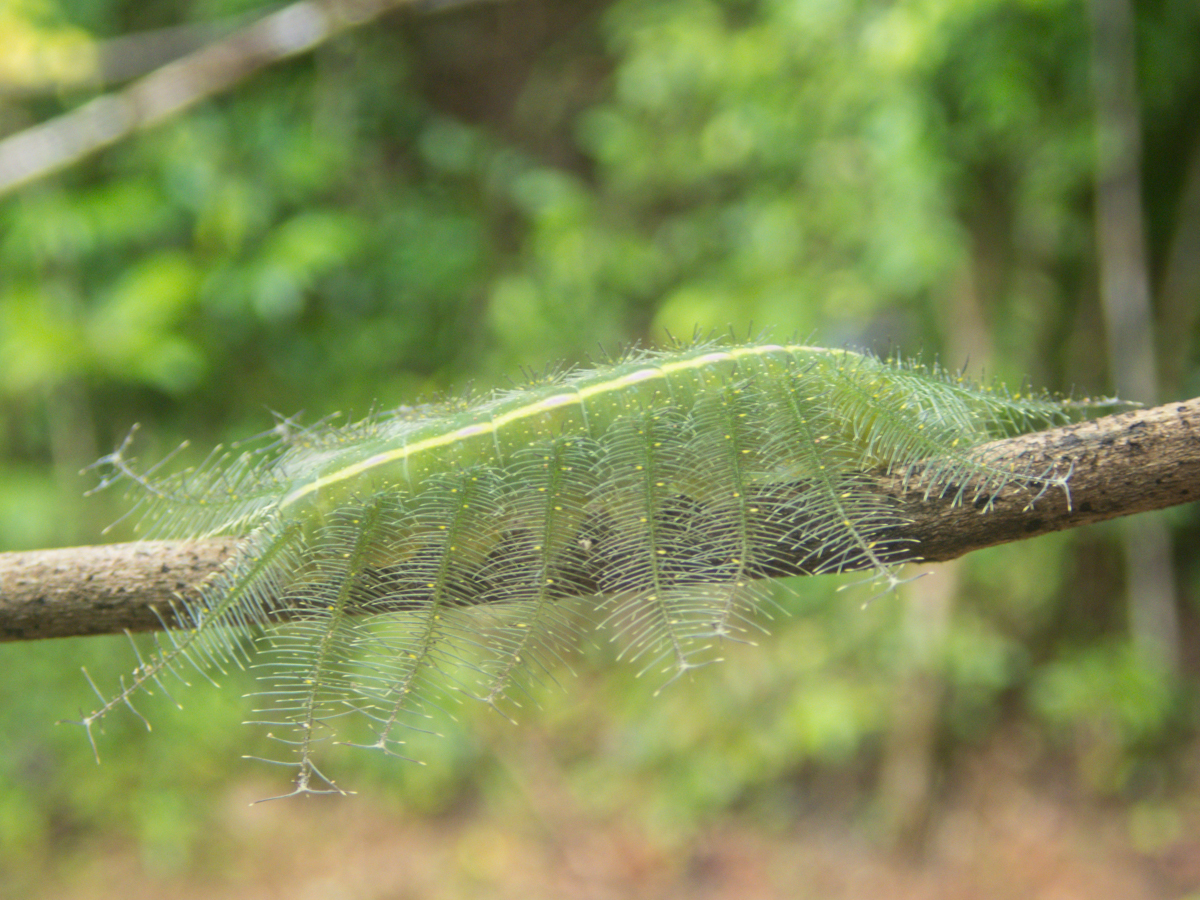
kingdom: Animalia
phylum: Arthropoda
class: Insecta
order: Lepidoptera
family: Nymphalidae
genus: Euthalia
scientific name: Euthalia phemius
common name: White-edged blue baron
